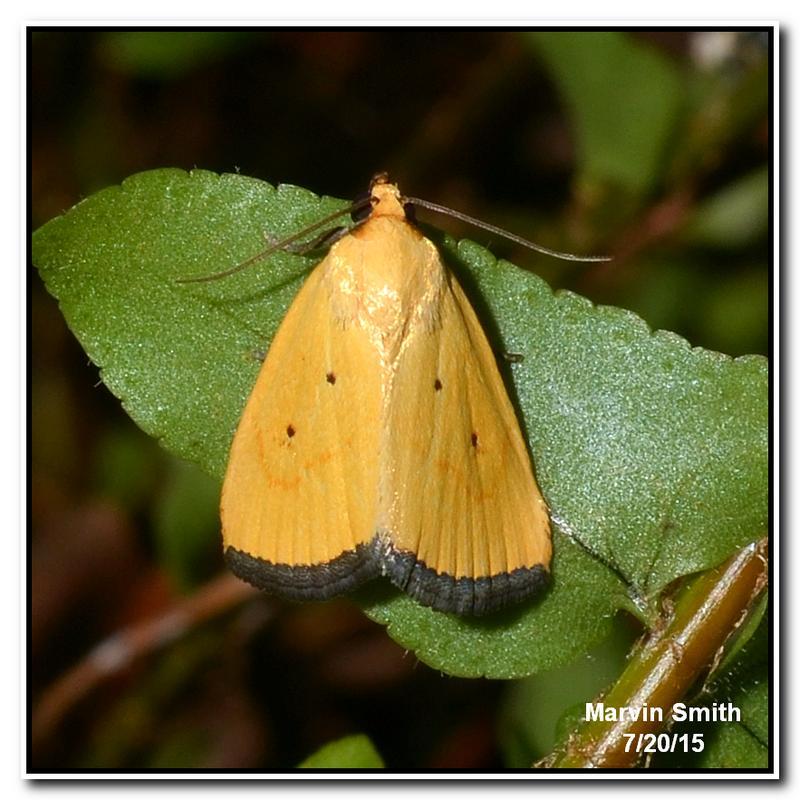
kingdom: Animalia
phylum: Arthropoda
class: Insecta
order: Lepidoptera
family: Noctuidae
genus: Marimatha
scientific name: Marimatha nigrofimbria
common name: Black-bordered lemon moth
